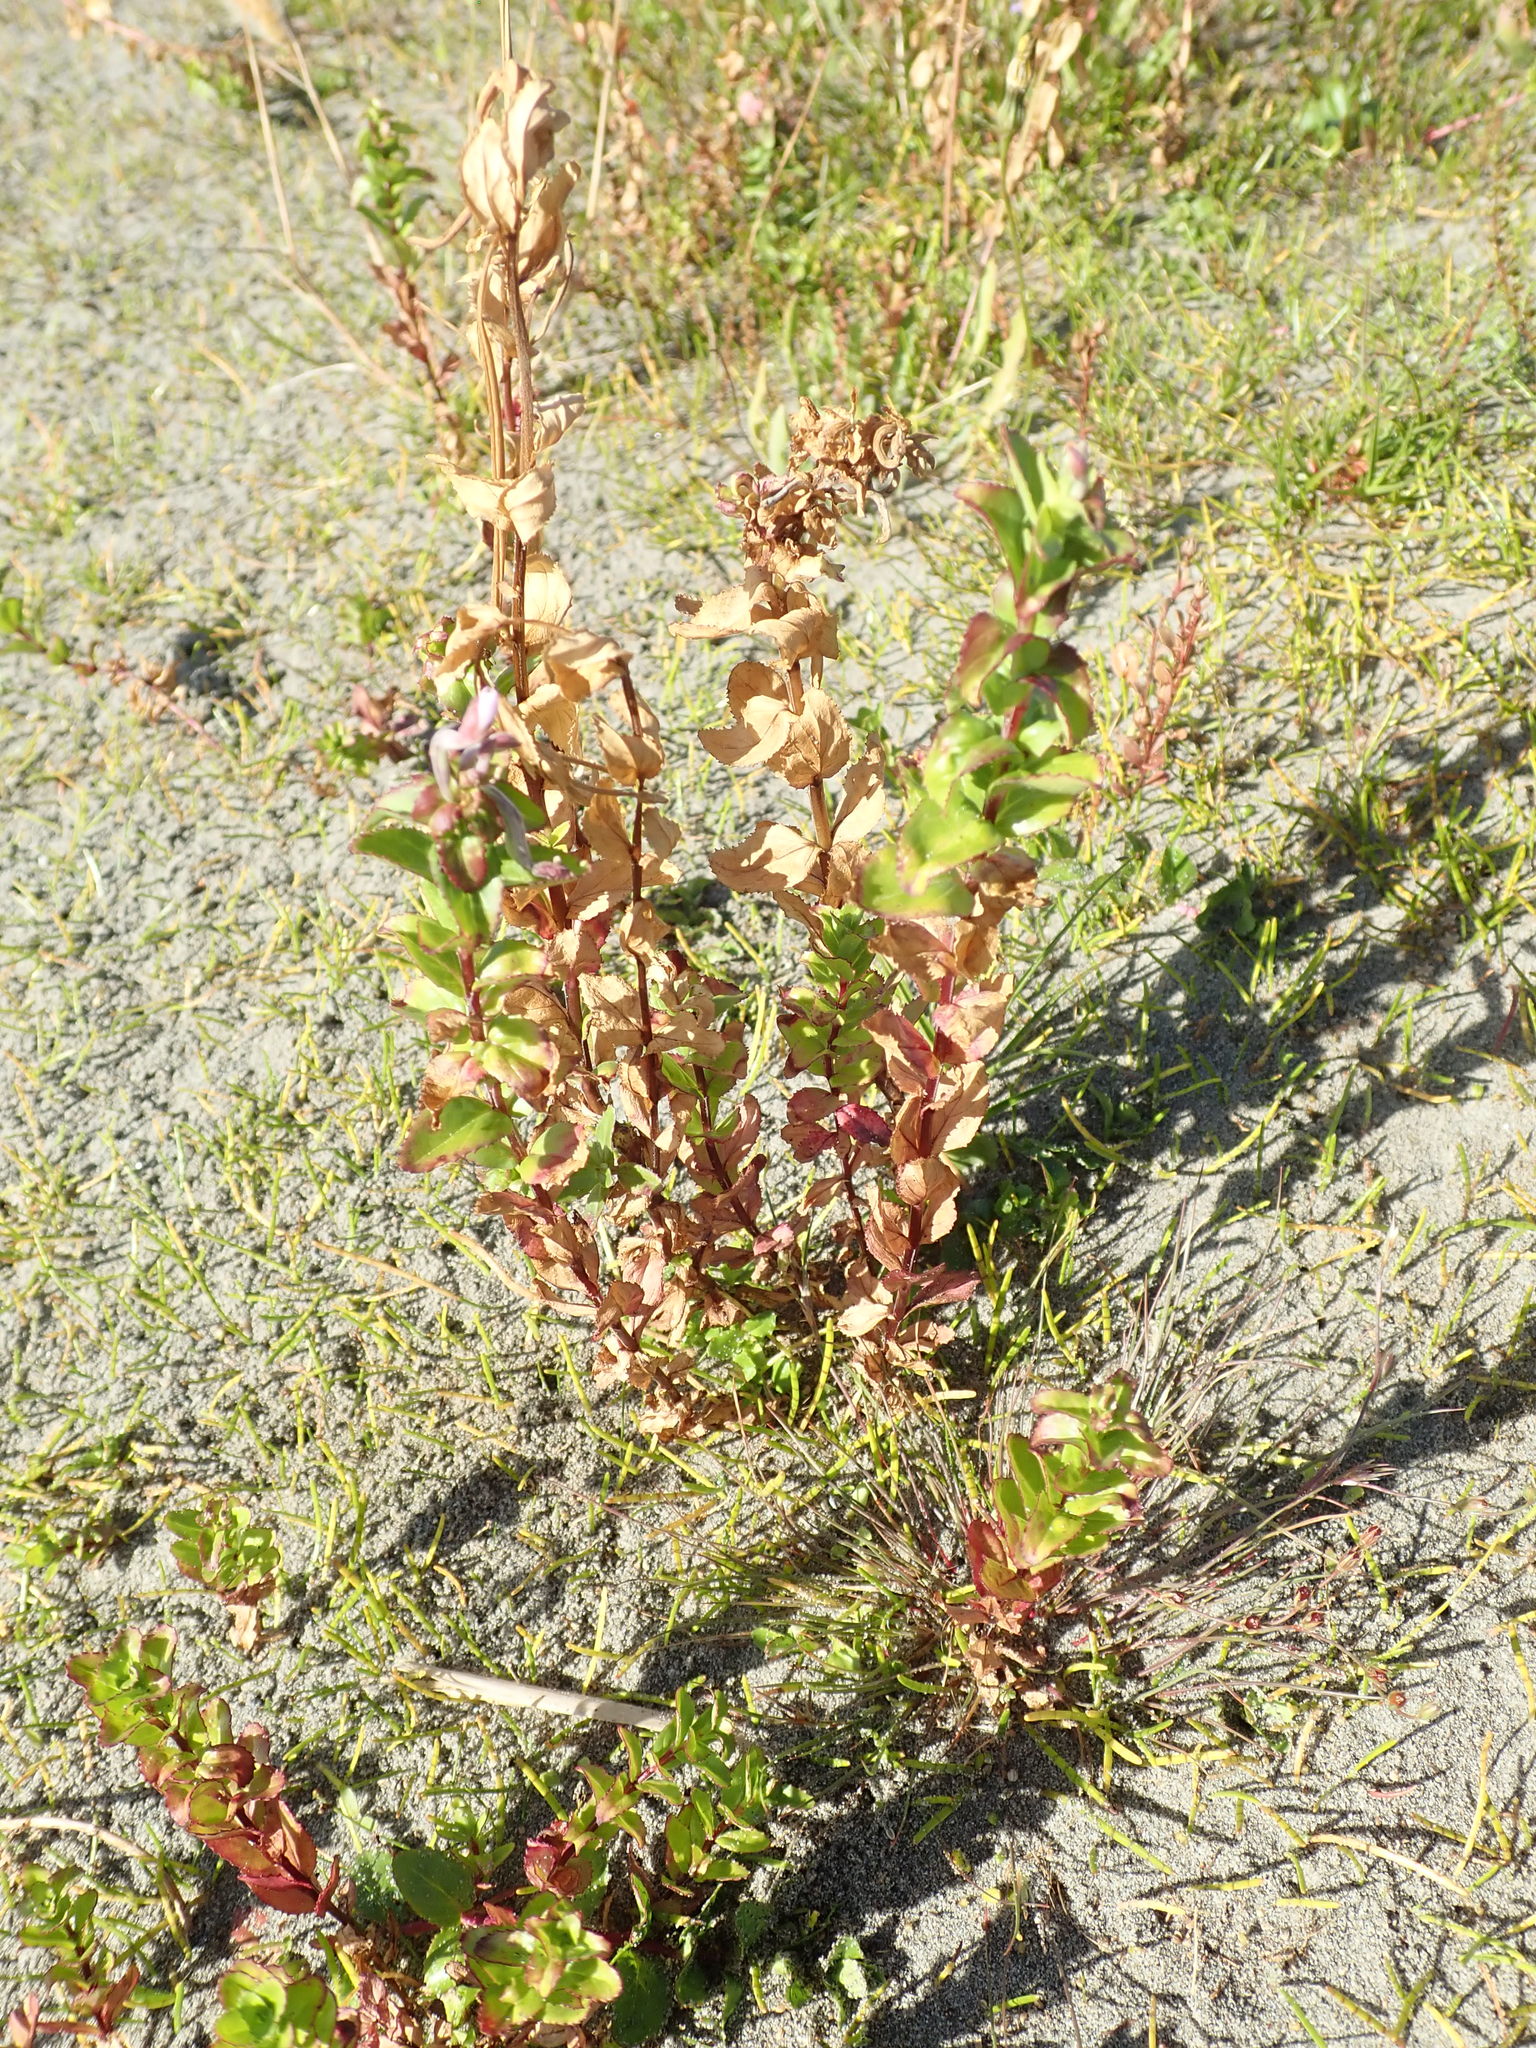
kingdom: Plantae
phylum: Tracheophyta
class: Magnoliopsida
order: Myrtales
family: Onagraceae
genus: Epilobium
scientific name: Epilobium billardiereanum
